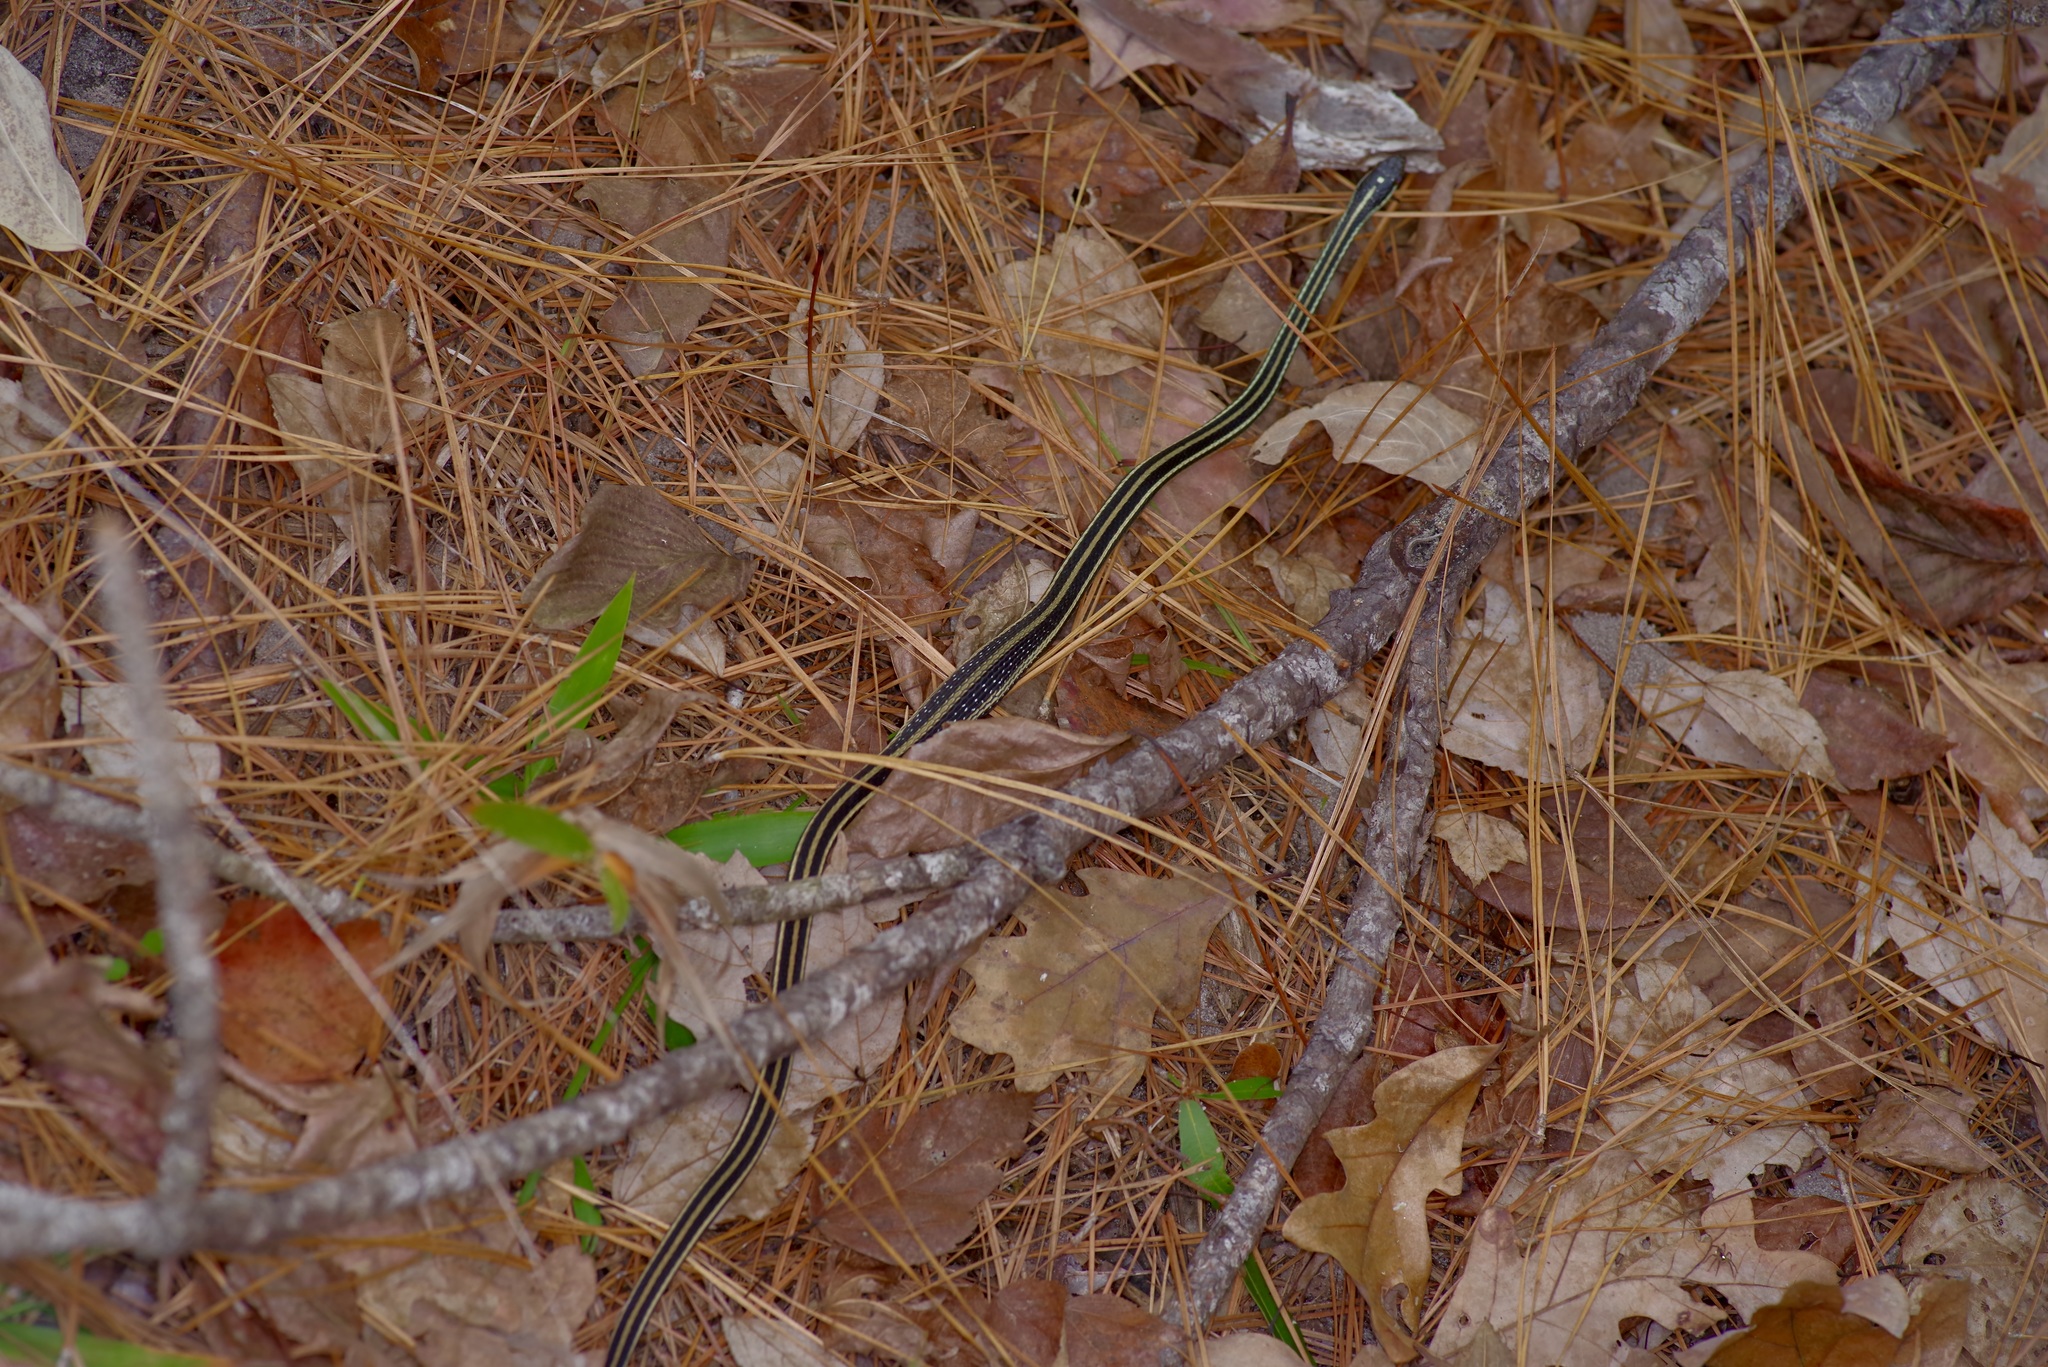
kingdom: Animalia
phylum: Chordata
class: Squamata
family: Colubridae
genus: Thamnophis
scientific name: Thamnophis proximus
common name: Western ribbon snake
